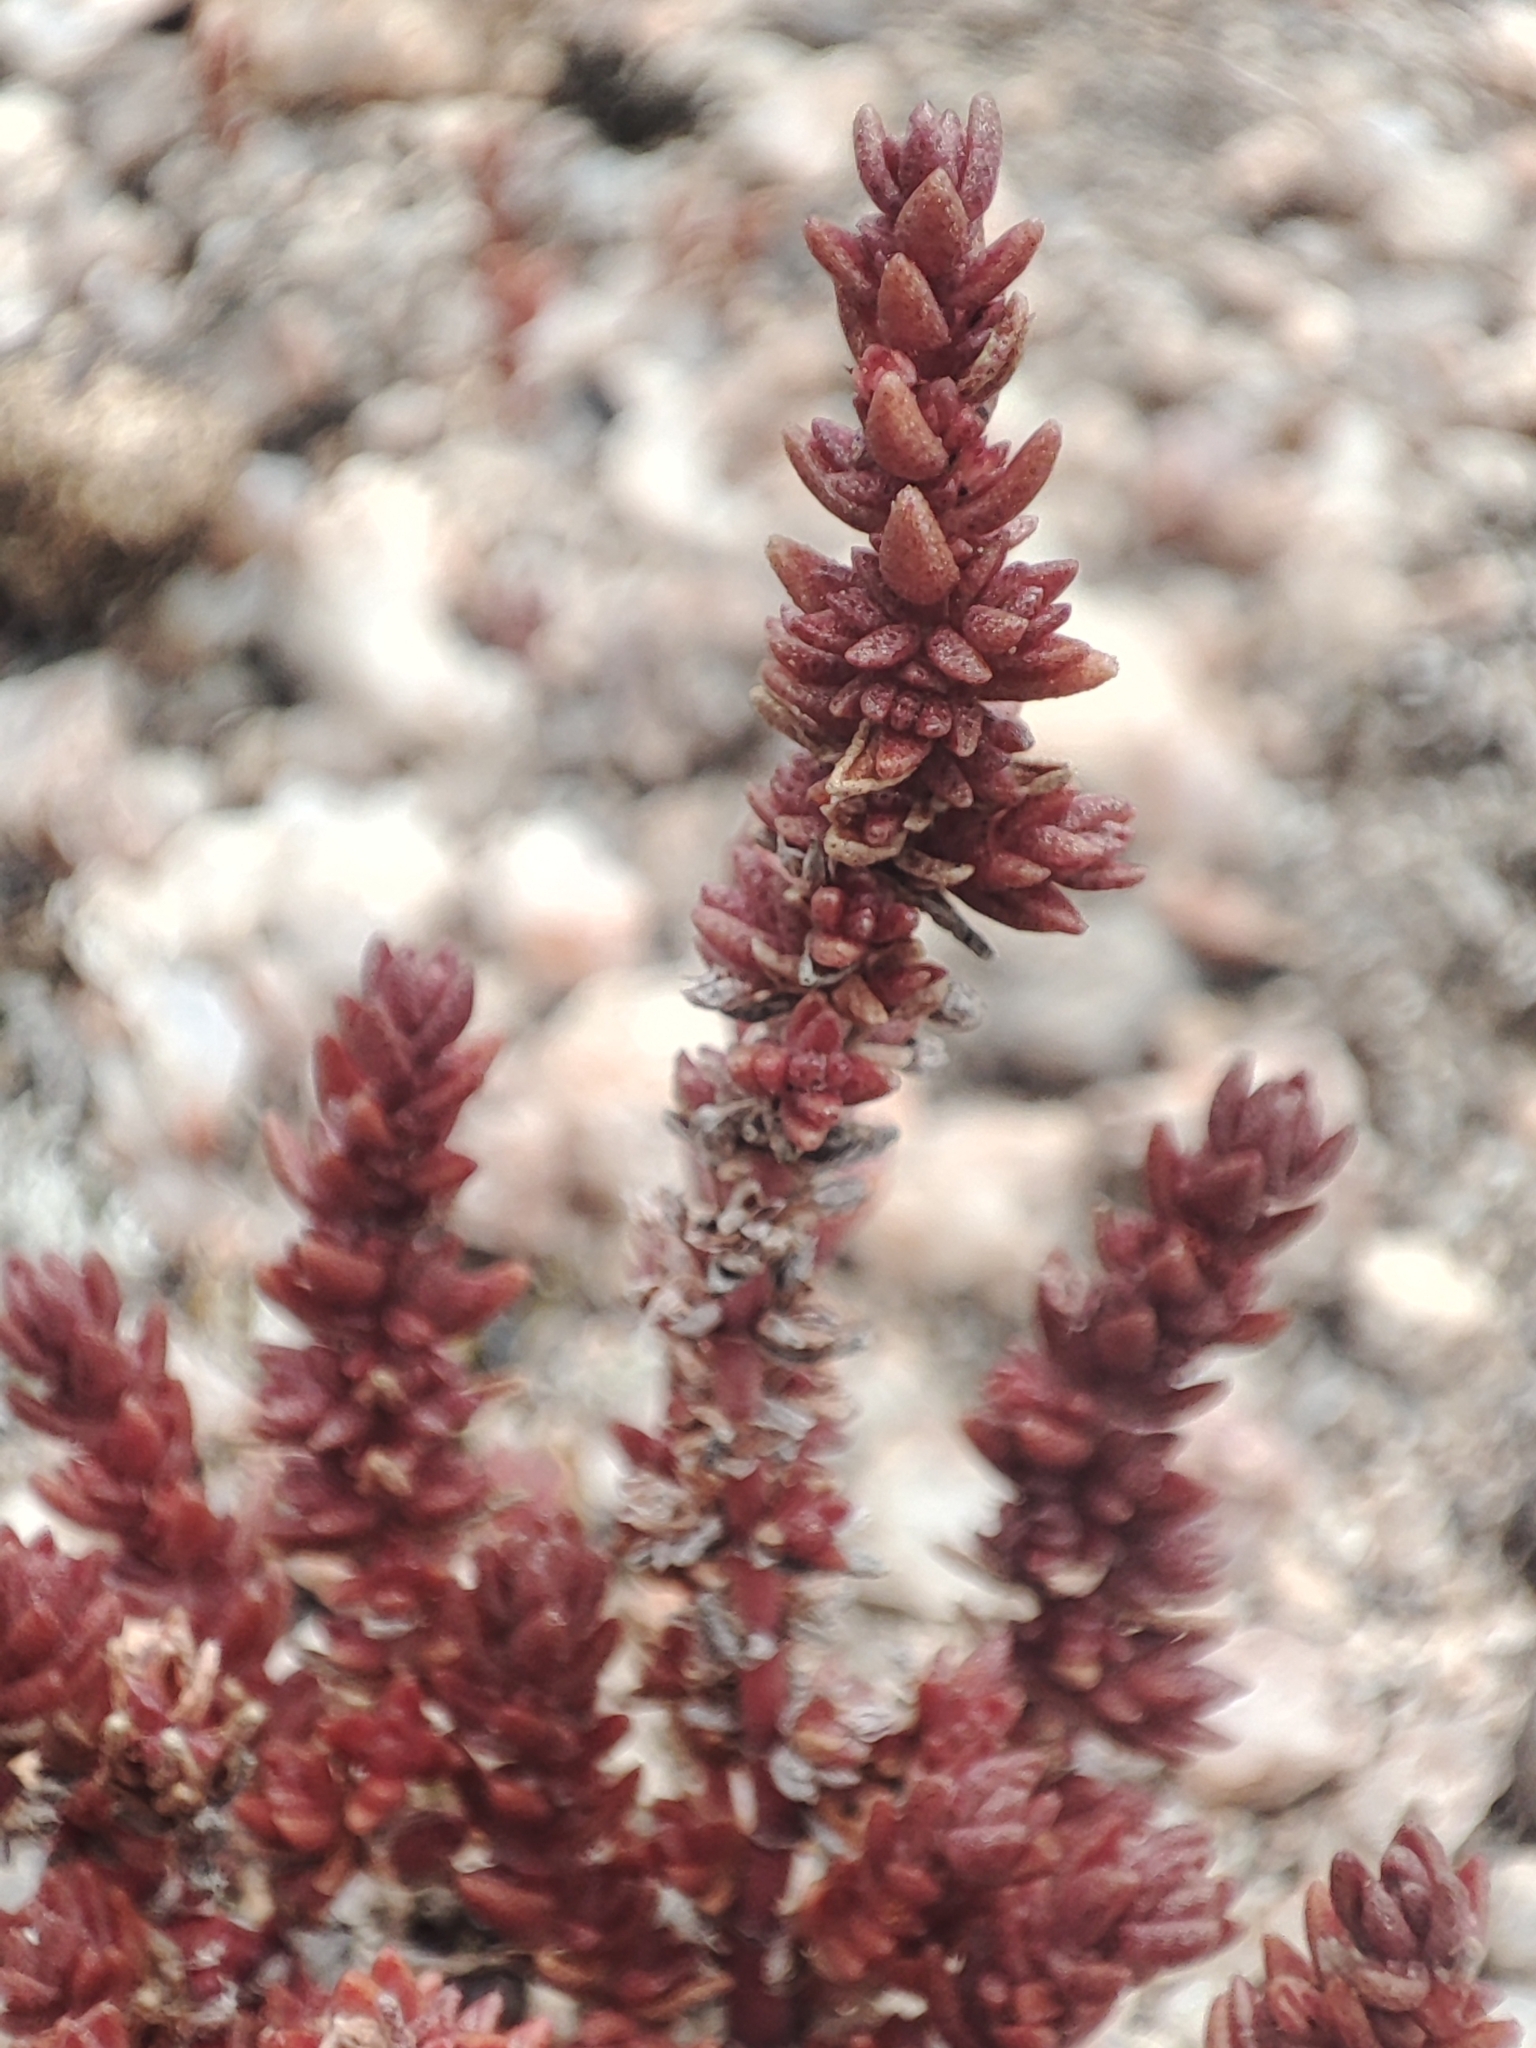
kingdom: Plantae
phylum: Tracheophyta
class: Magnoliopsida
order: Saxifragales
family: Crassulaceae
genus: Crassula
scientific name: Crassula sieberiana
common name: Siberian pygmyweed
